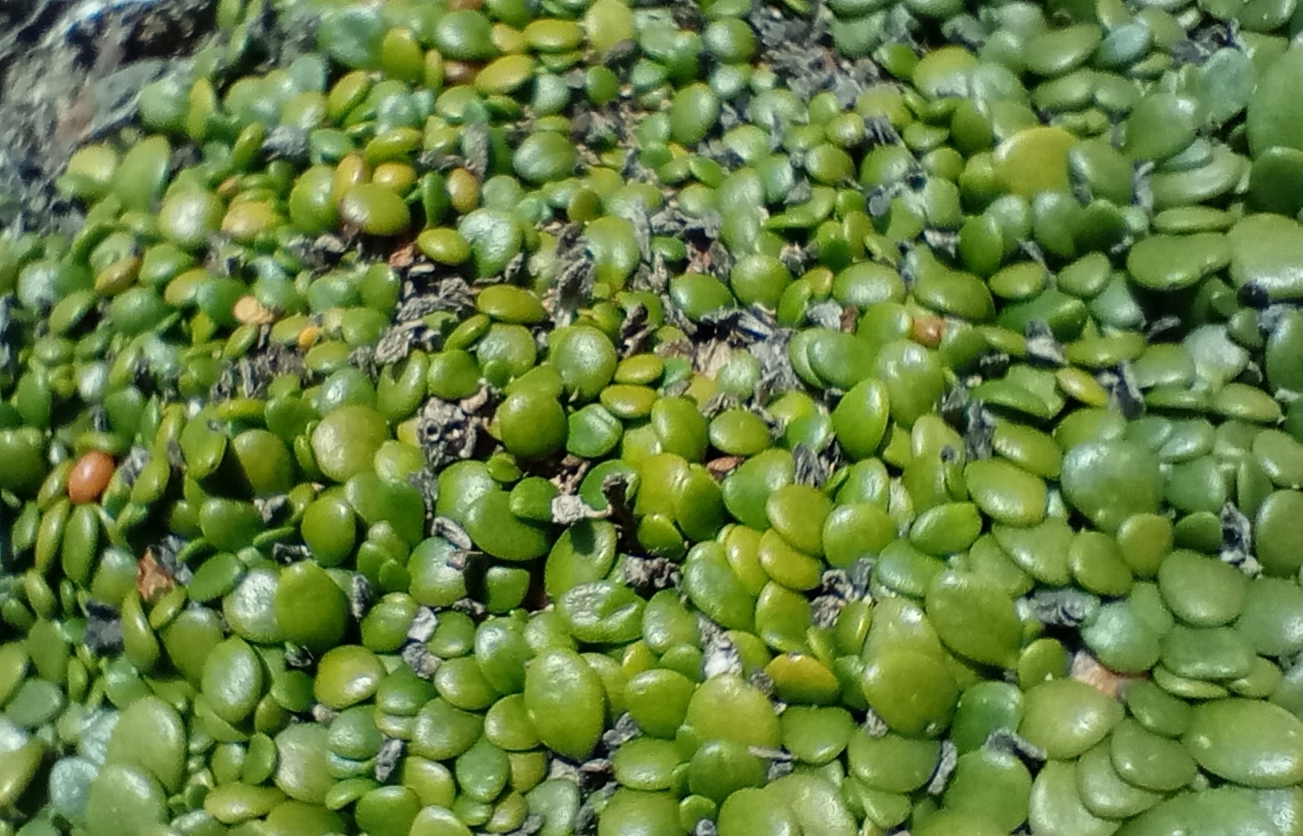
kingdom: Plantae
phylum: Tracheophyta
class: Magnoliopsida
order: Asterales
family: Goodeniaceae
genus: Goodenia
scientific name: Goodenia radicans
